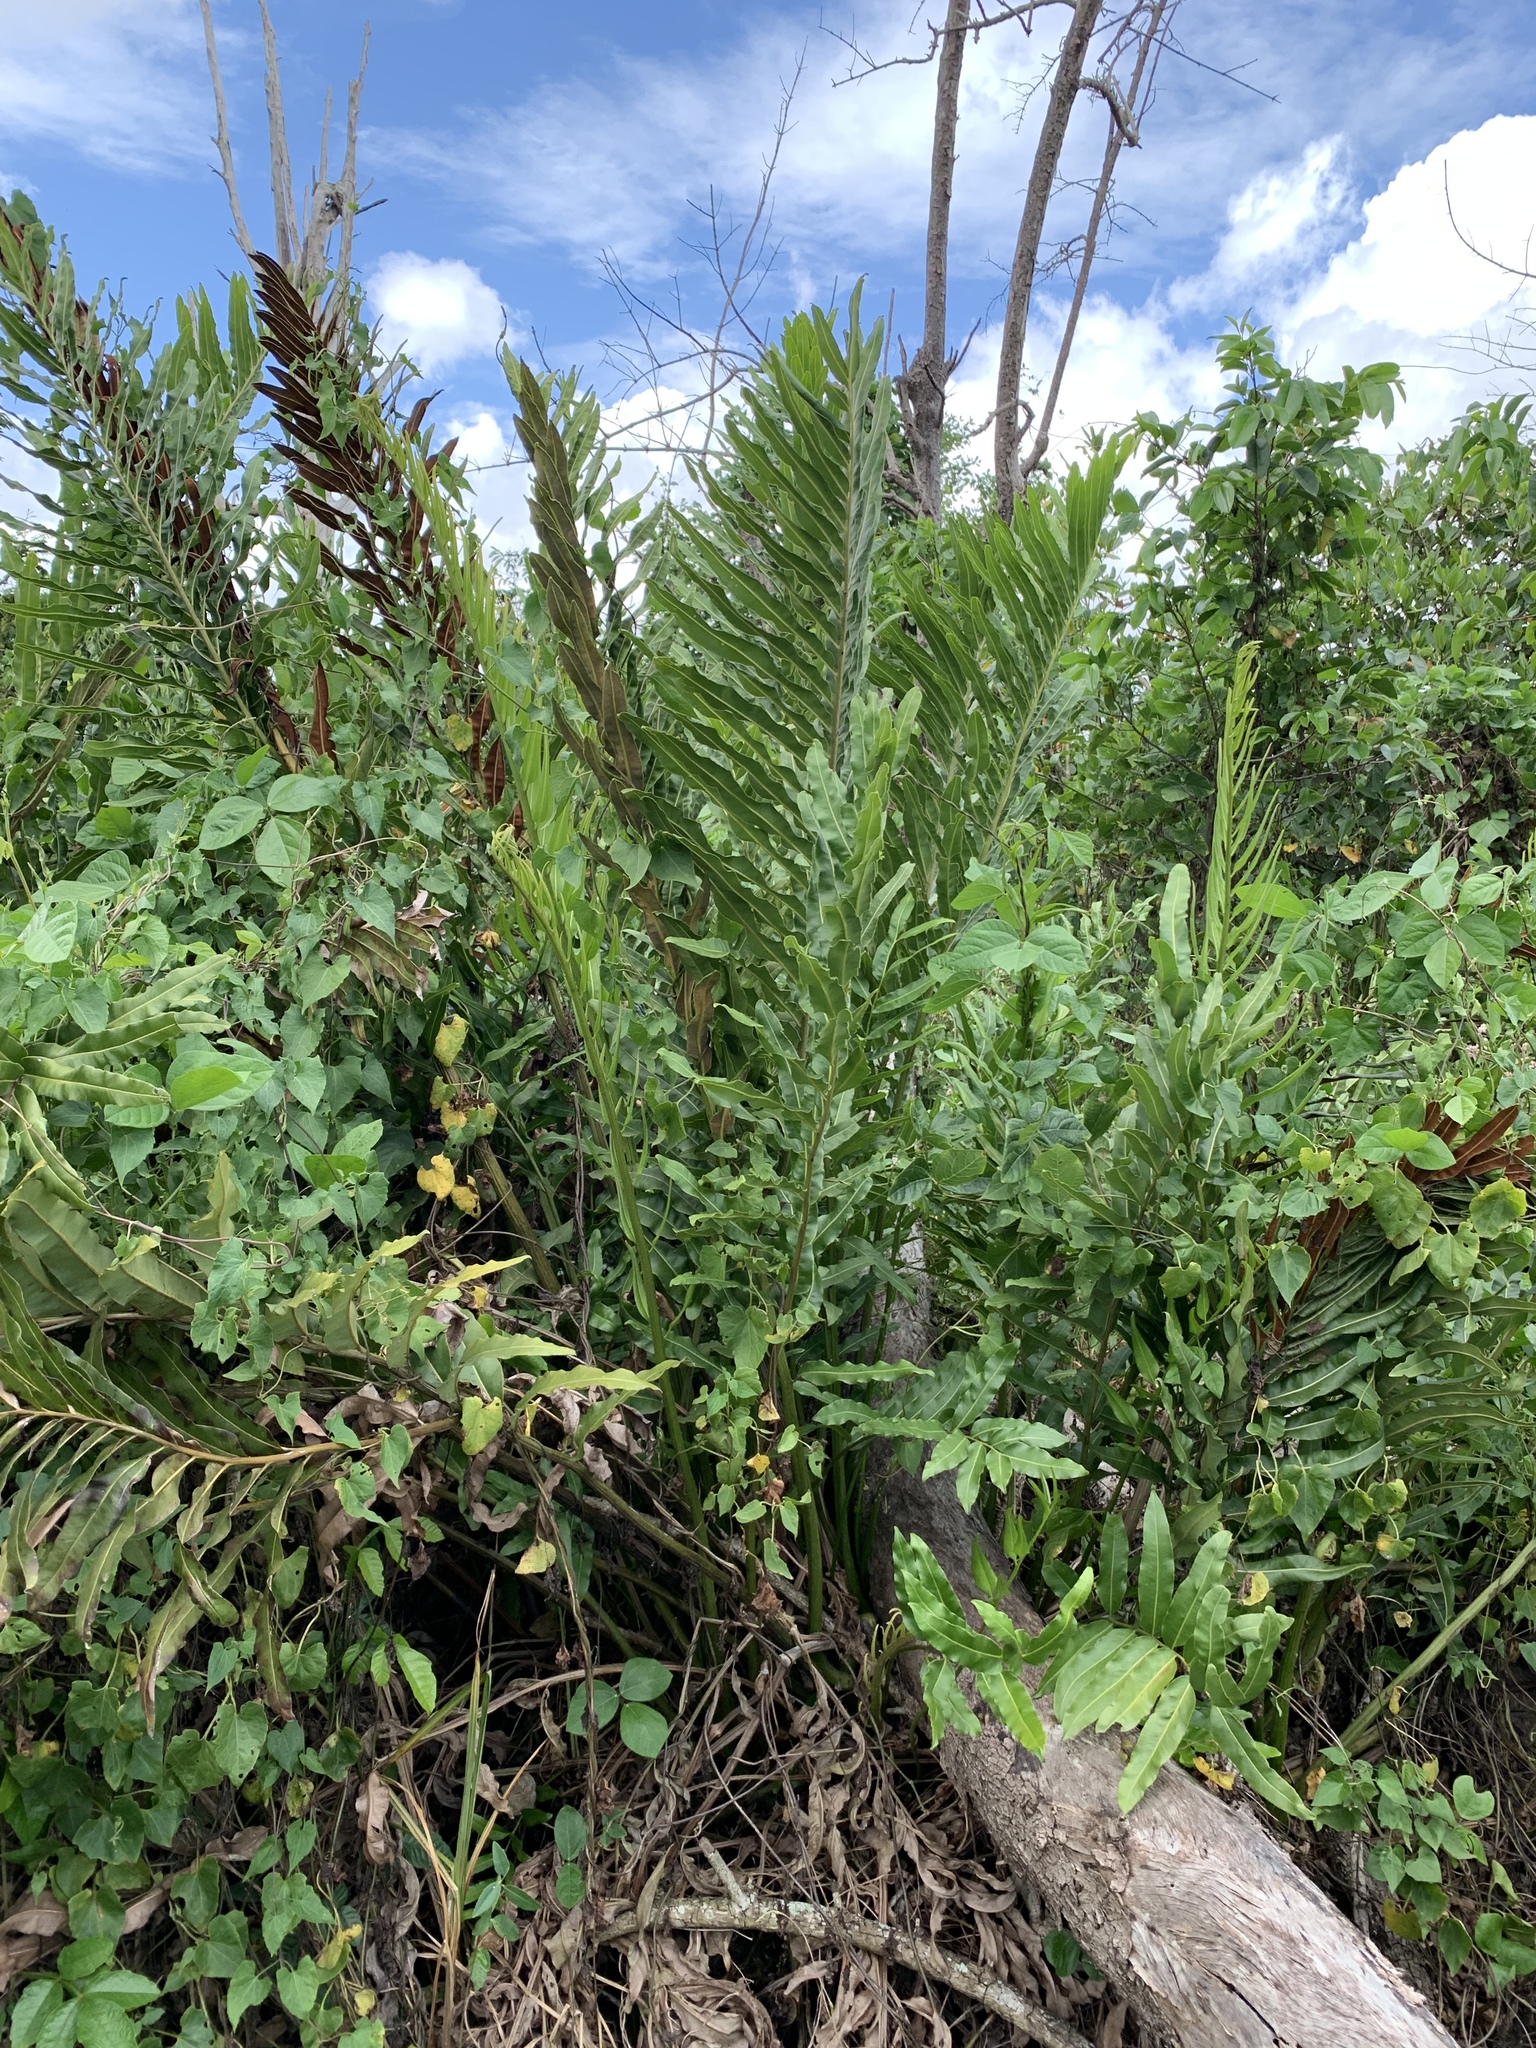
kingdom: Plantae
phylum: Tracheophyta
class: Polypodiopsida
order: Polypodiales
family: Pteridaceae
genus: Acrostichum
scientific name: Acrostichum danaeifolium
